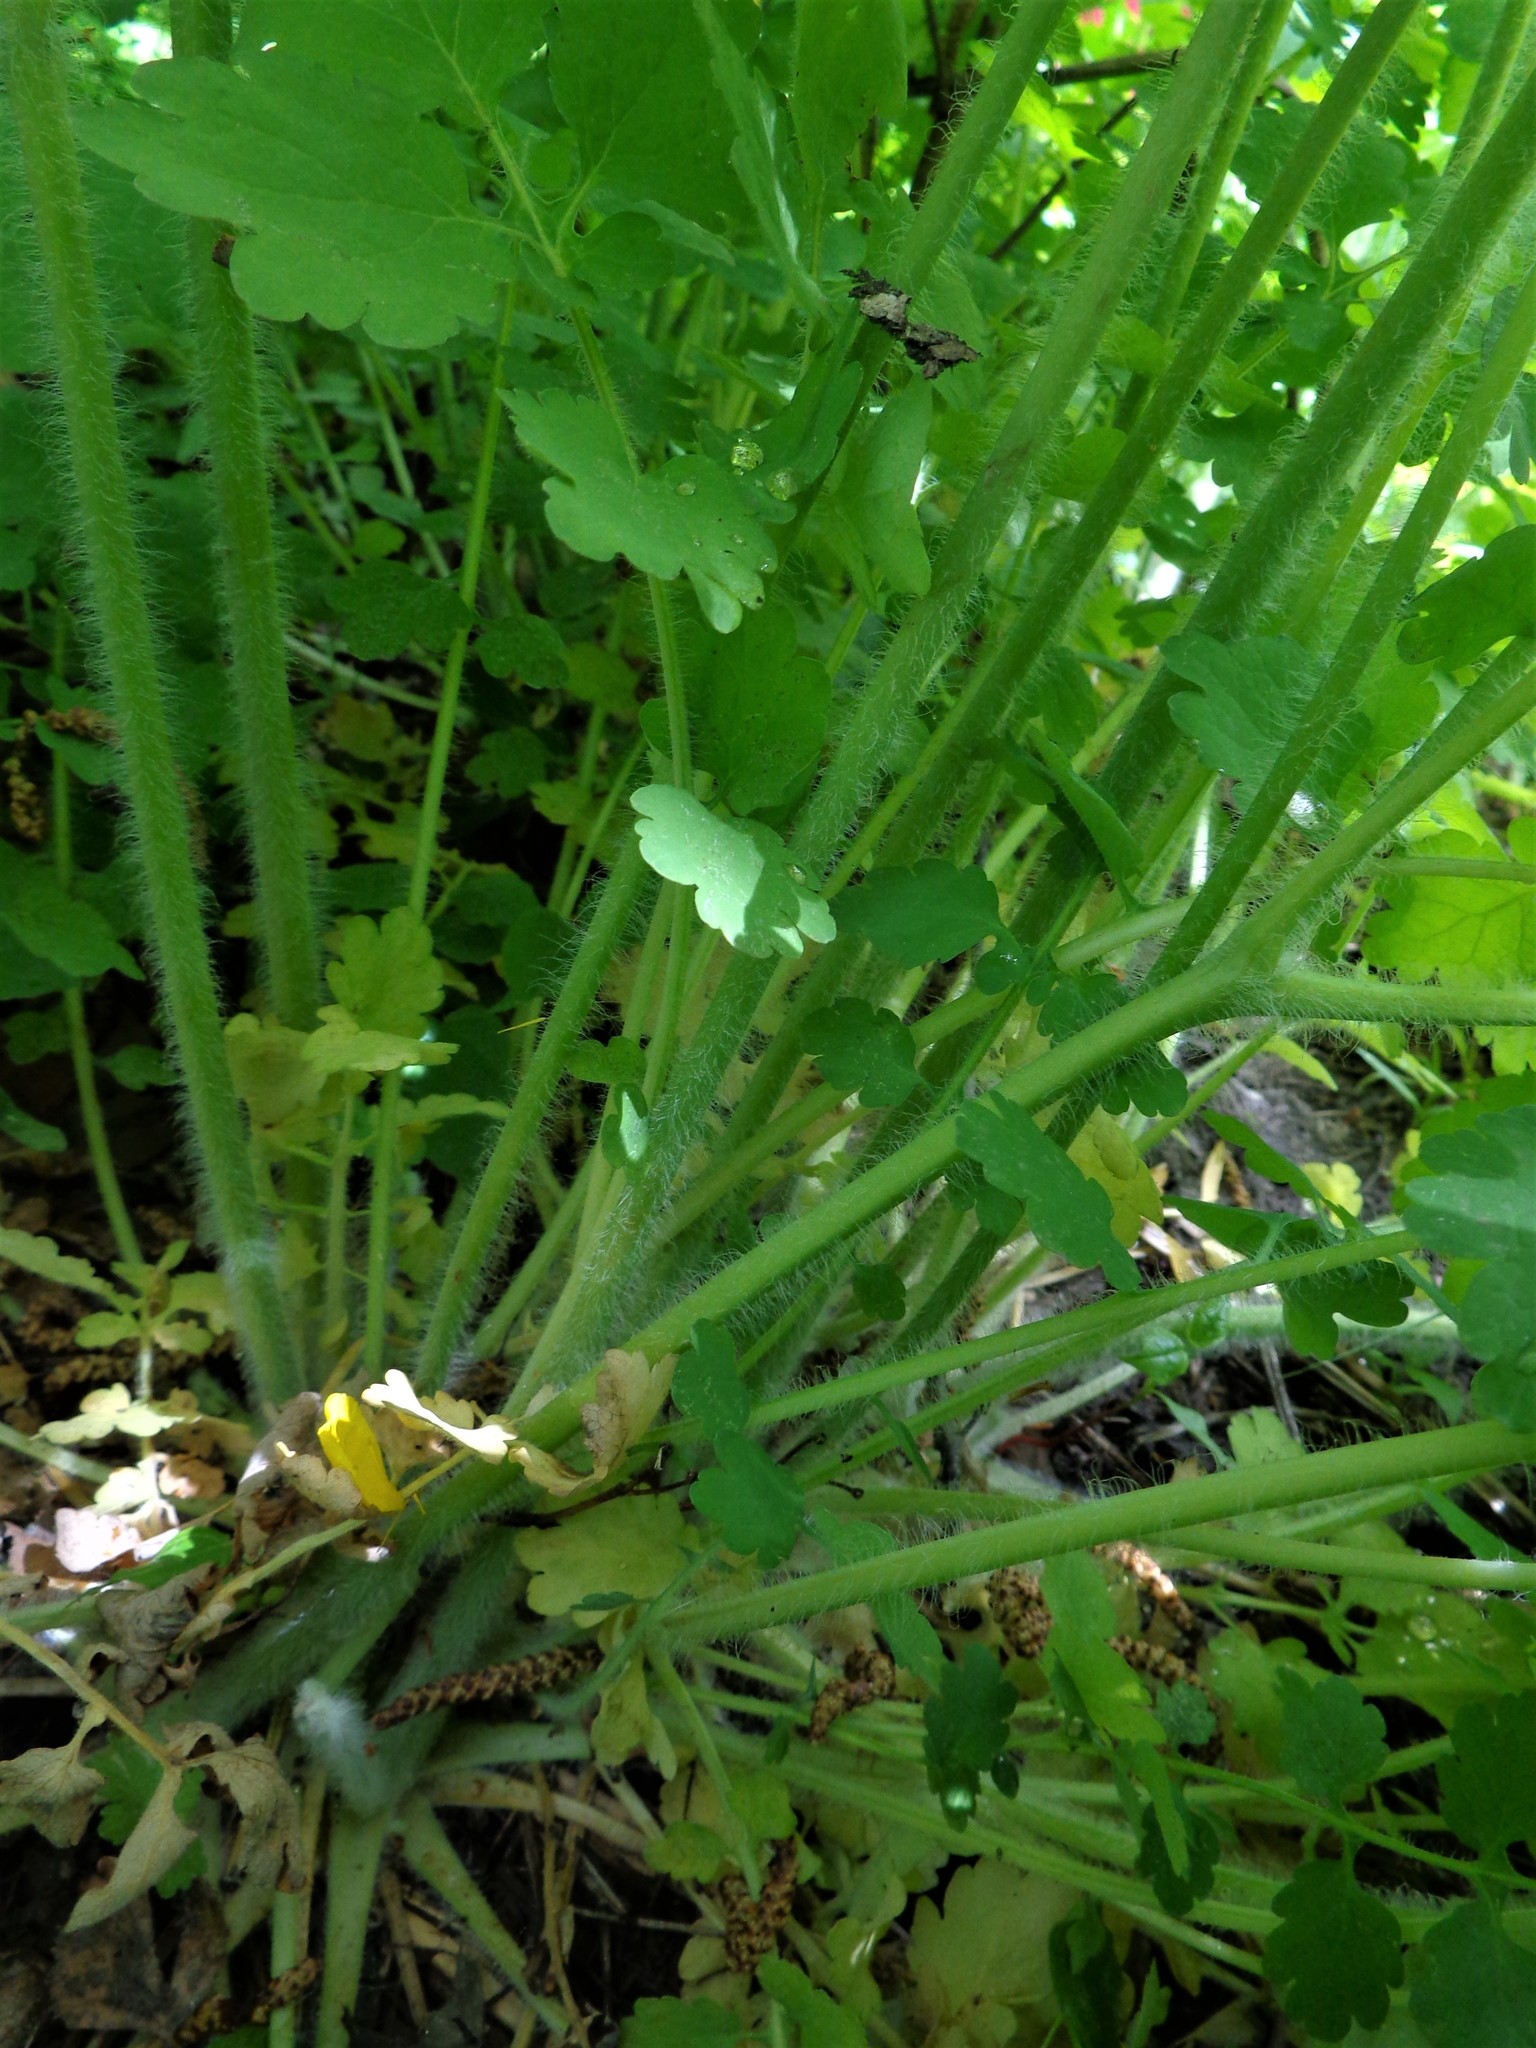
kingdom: Plantae
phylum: Tracheophyta
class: Magnoliopsida
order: Ranunculales
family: Papaveraceae
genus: Chelidonium
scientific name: Chelidonium majus
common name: Greater celandine
